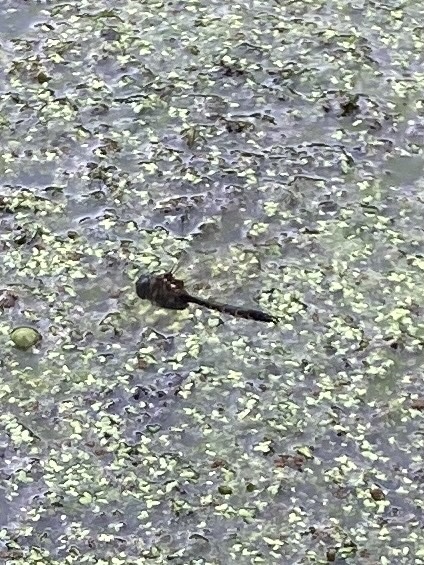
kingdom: Animalia
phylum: Arthropoda
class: Insecta
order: Odonata
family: Corduliidae
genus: Hemicordulia
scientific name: Hemicordulia armstrongi
